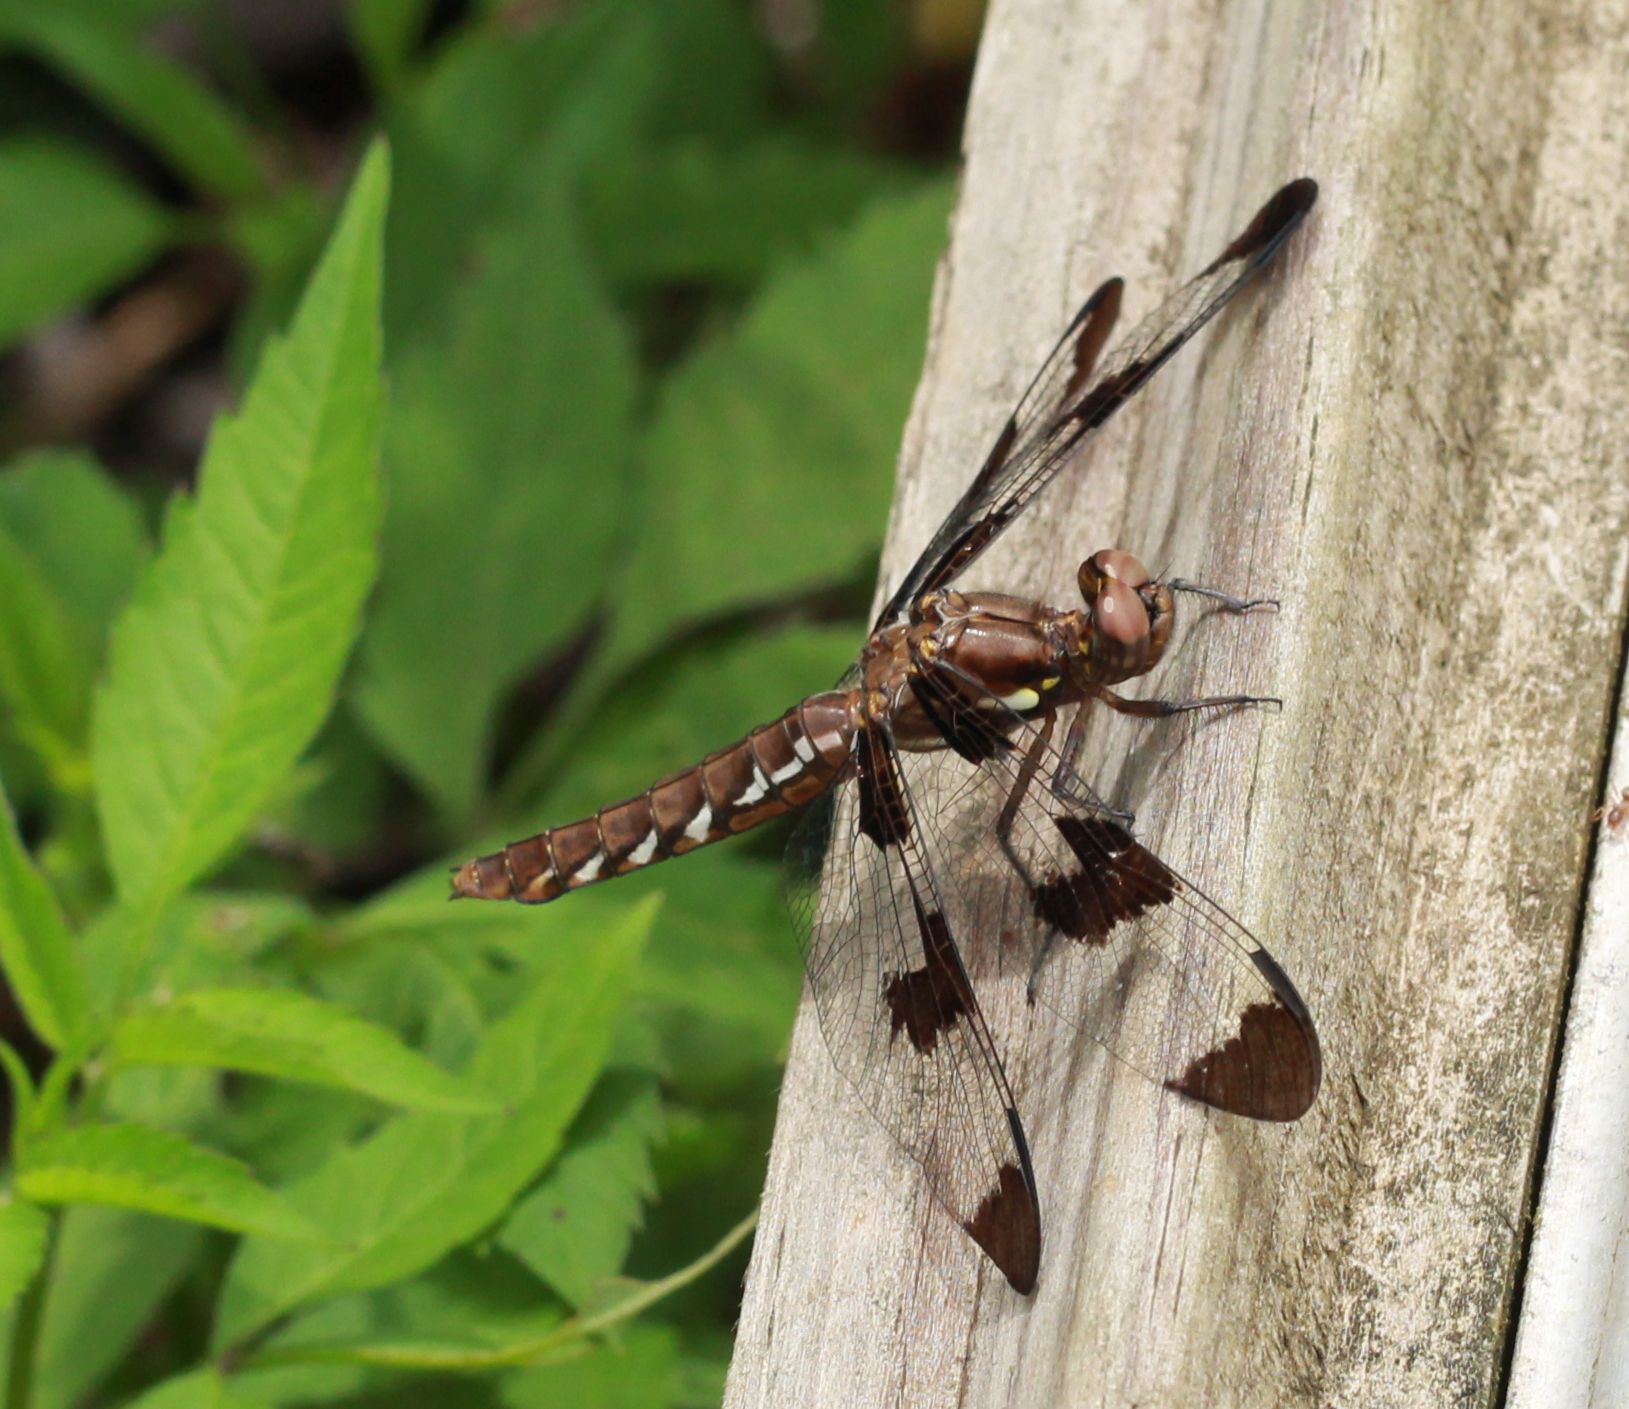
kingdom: Animalia
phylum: Arthropoda
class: Insecta
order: Odonata
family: Libellulidae
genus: Plathemis
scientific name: Plathemis lydia
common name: Common whitetail
